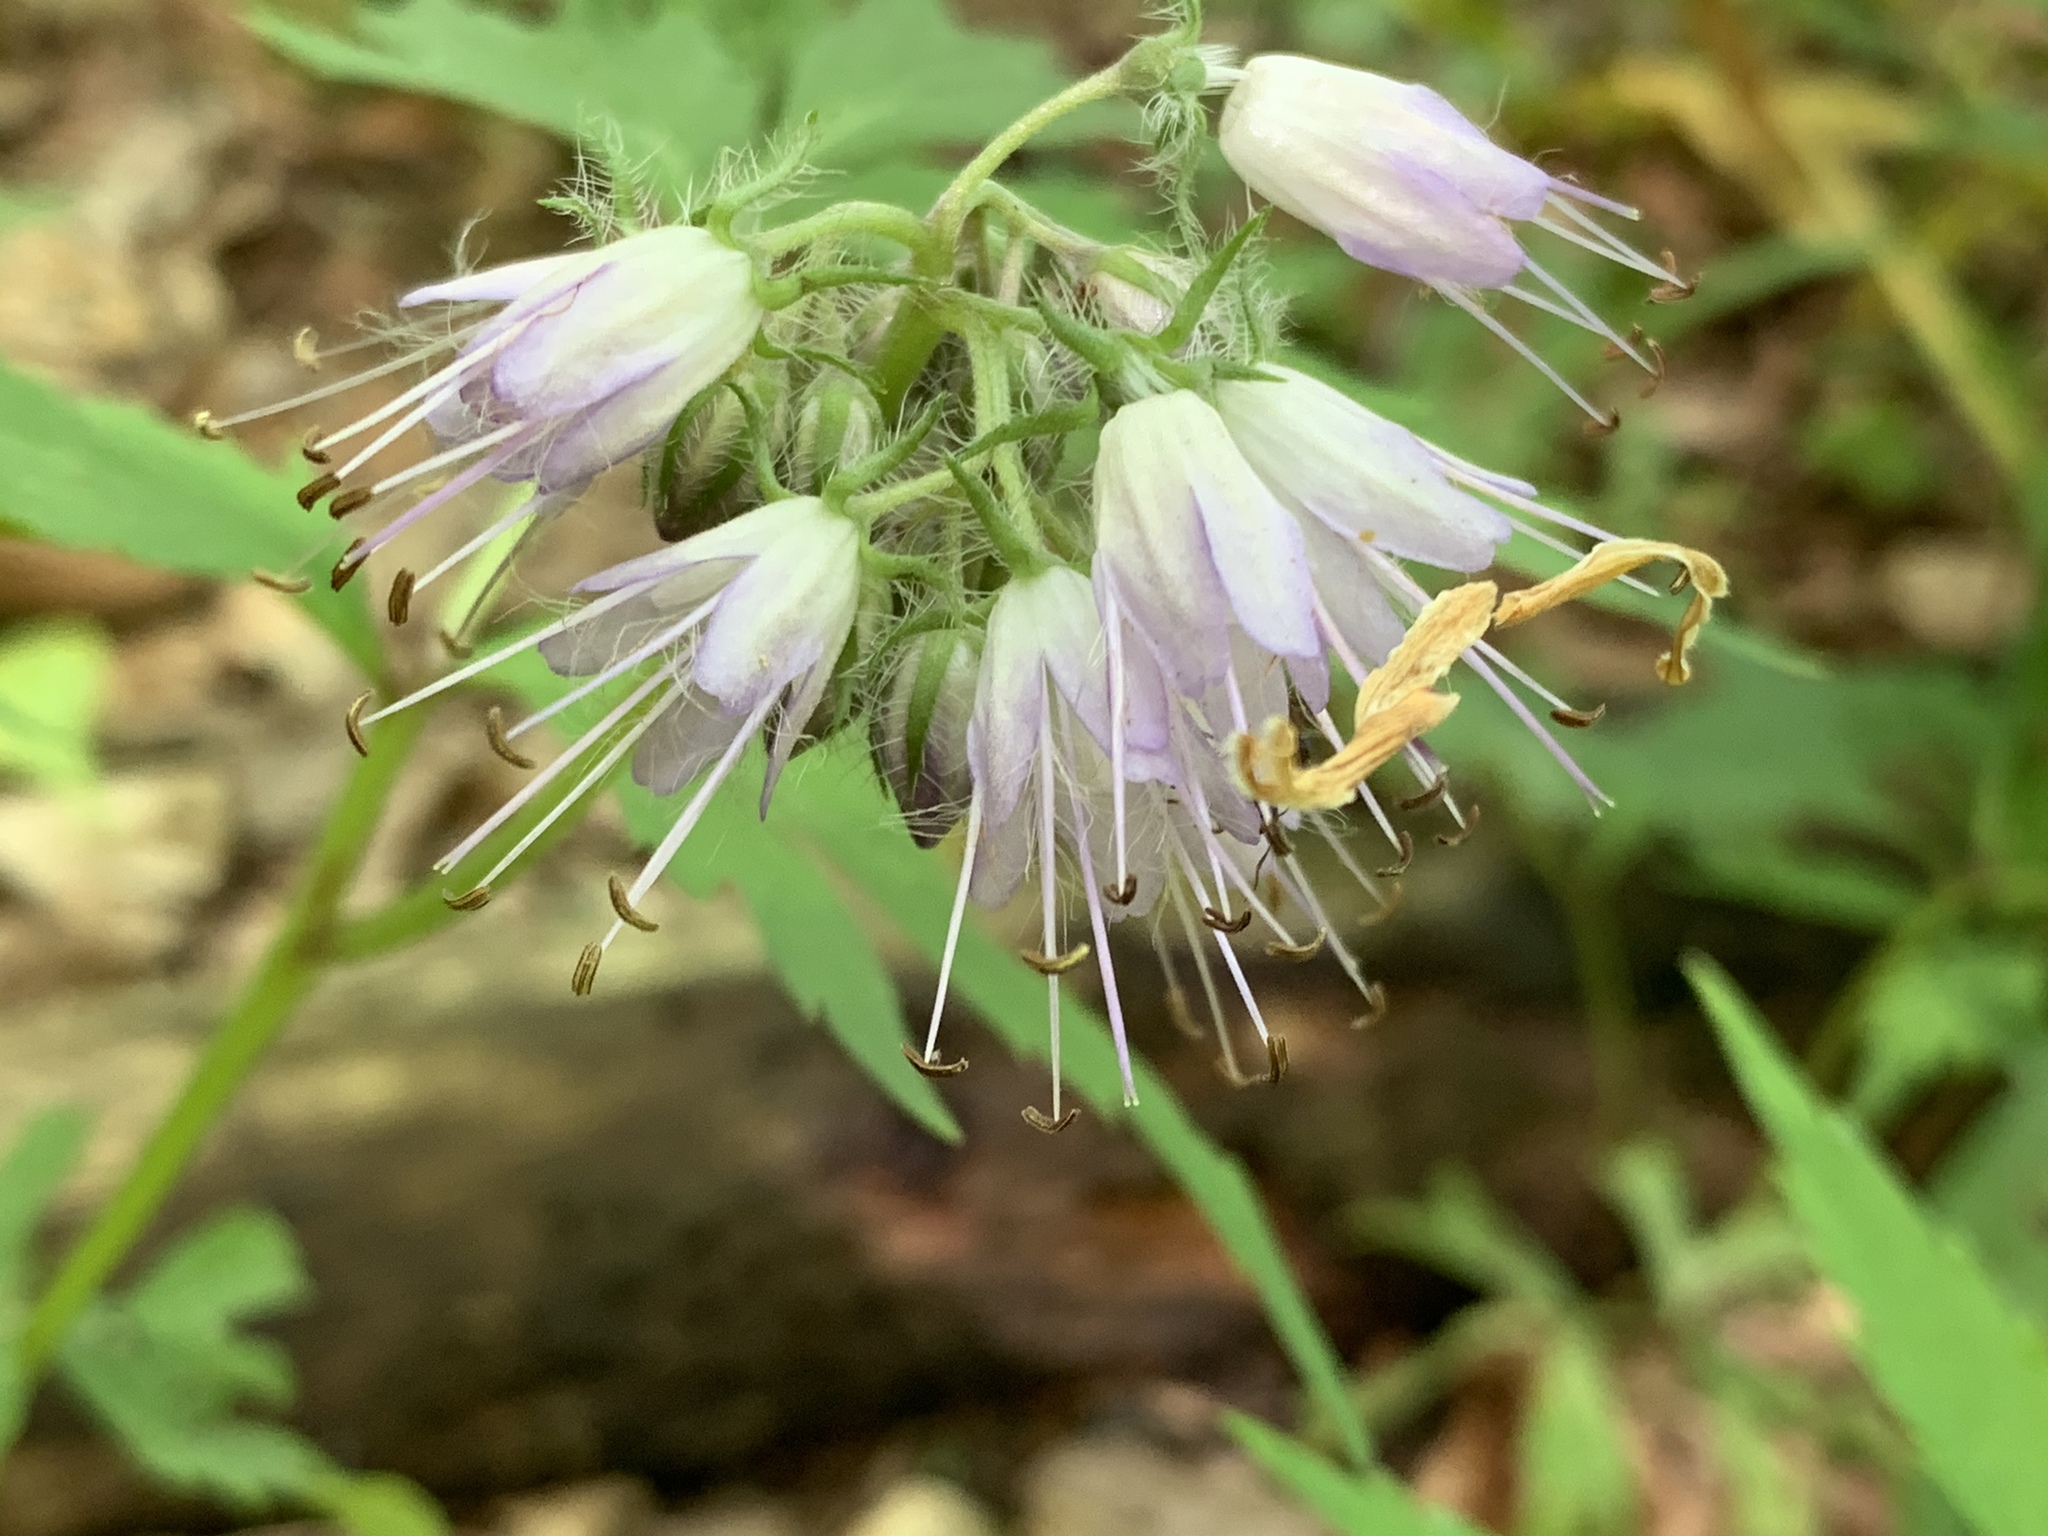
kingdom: Plantae
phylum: Tracheophyta
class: Magnoliopsida
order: Boraginales
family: Hydrophyllaceae
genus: Hydrophyllum
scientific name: Hydrophyllum virginianum
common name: Virginia waterleaf
